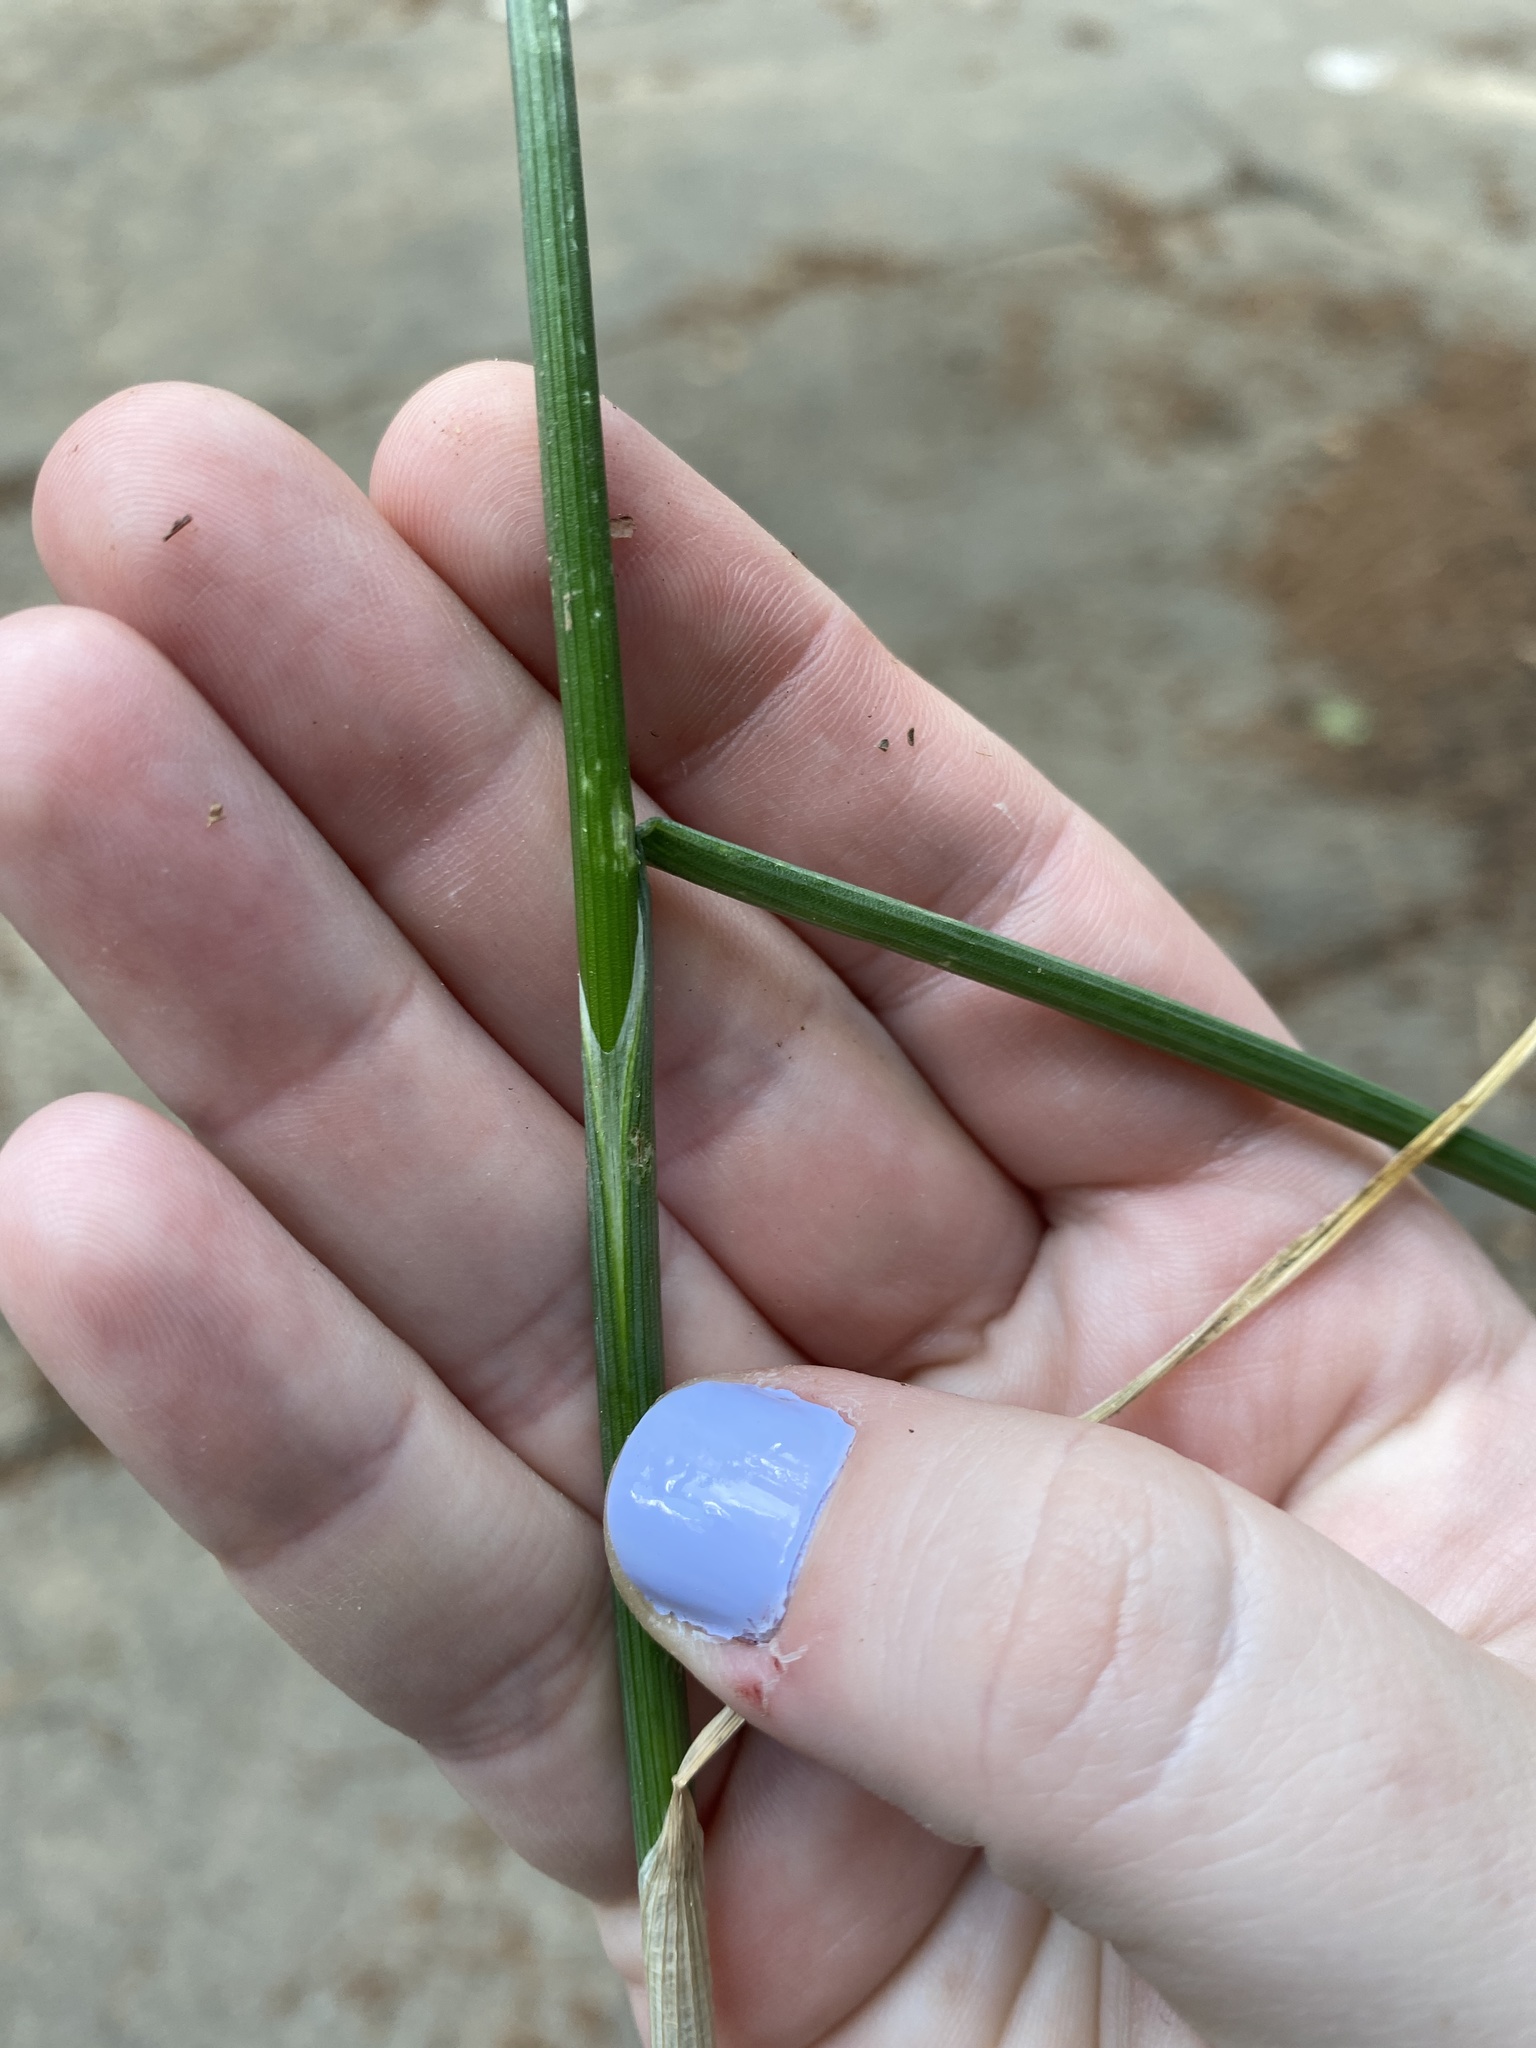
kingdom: Plantae
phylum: Tracheophyta
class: Liliopsida
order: Asparagales
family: Amaryllidaceae
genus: Allium
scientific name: Allium vineale
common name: Crow garlic
